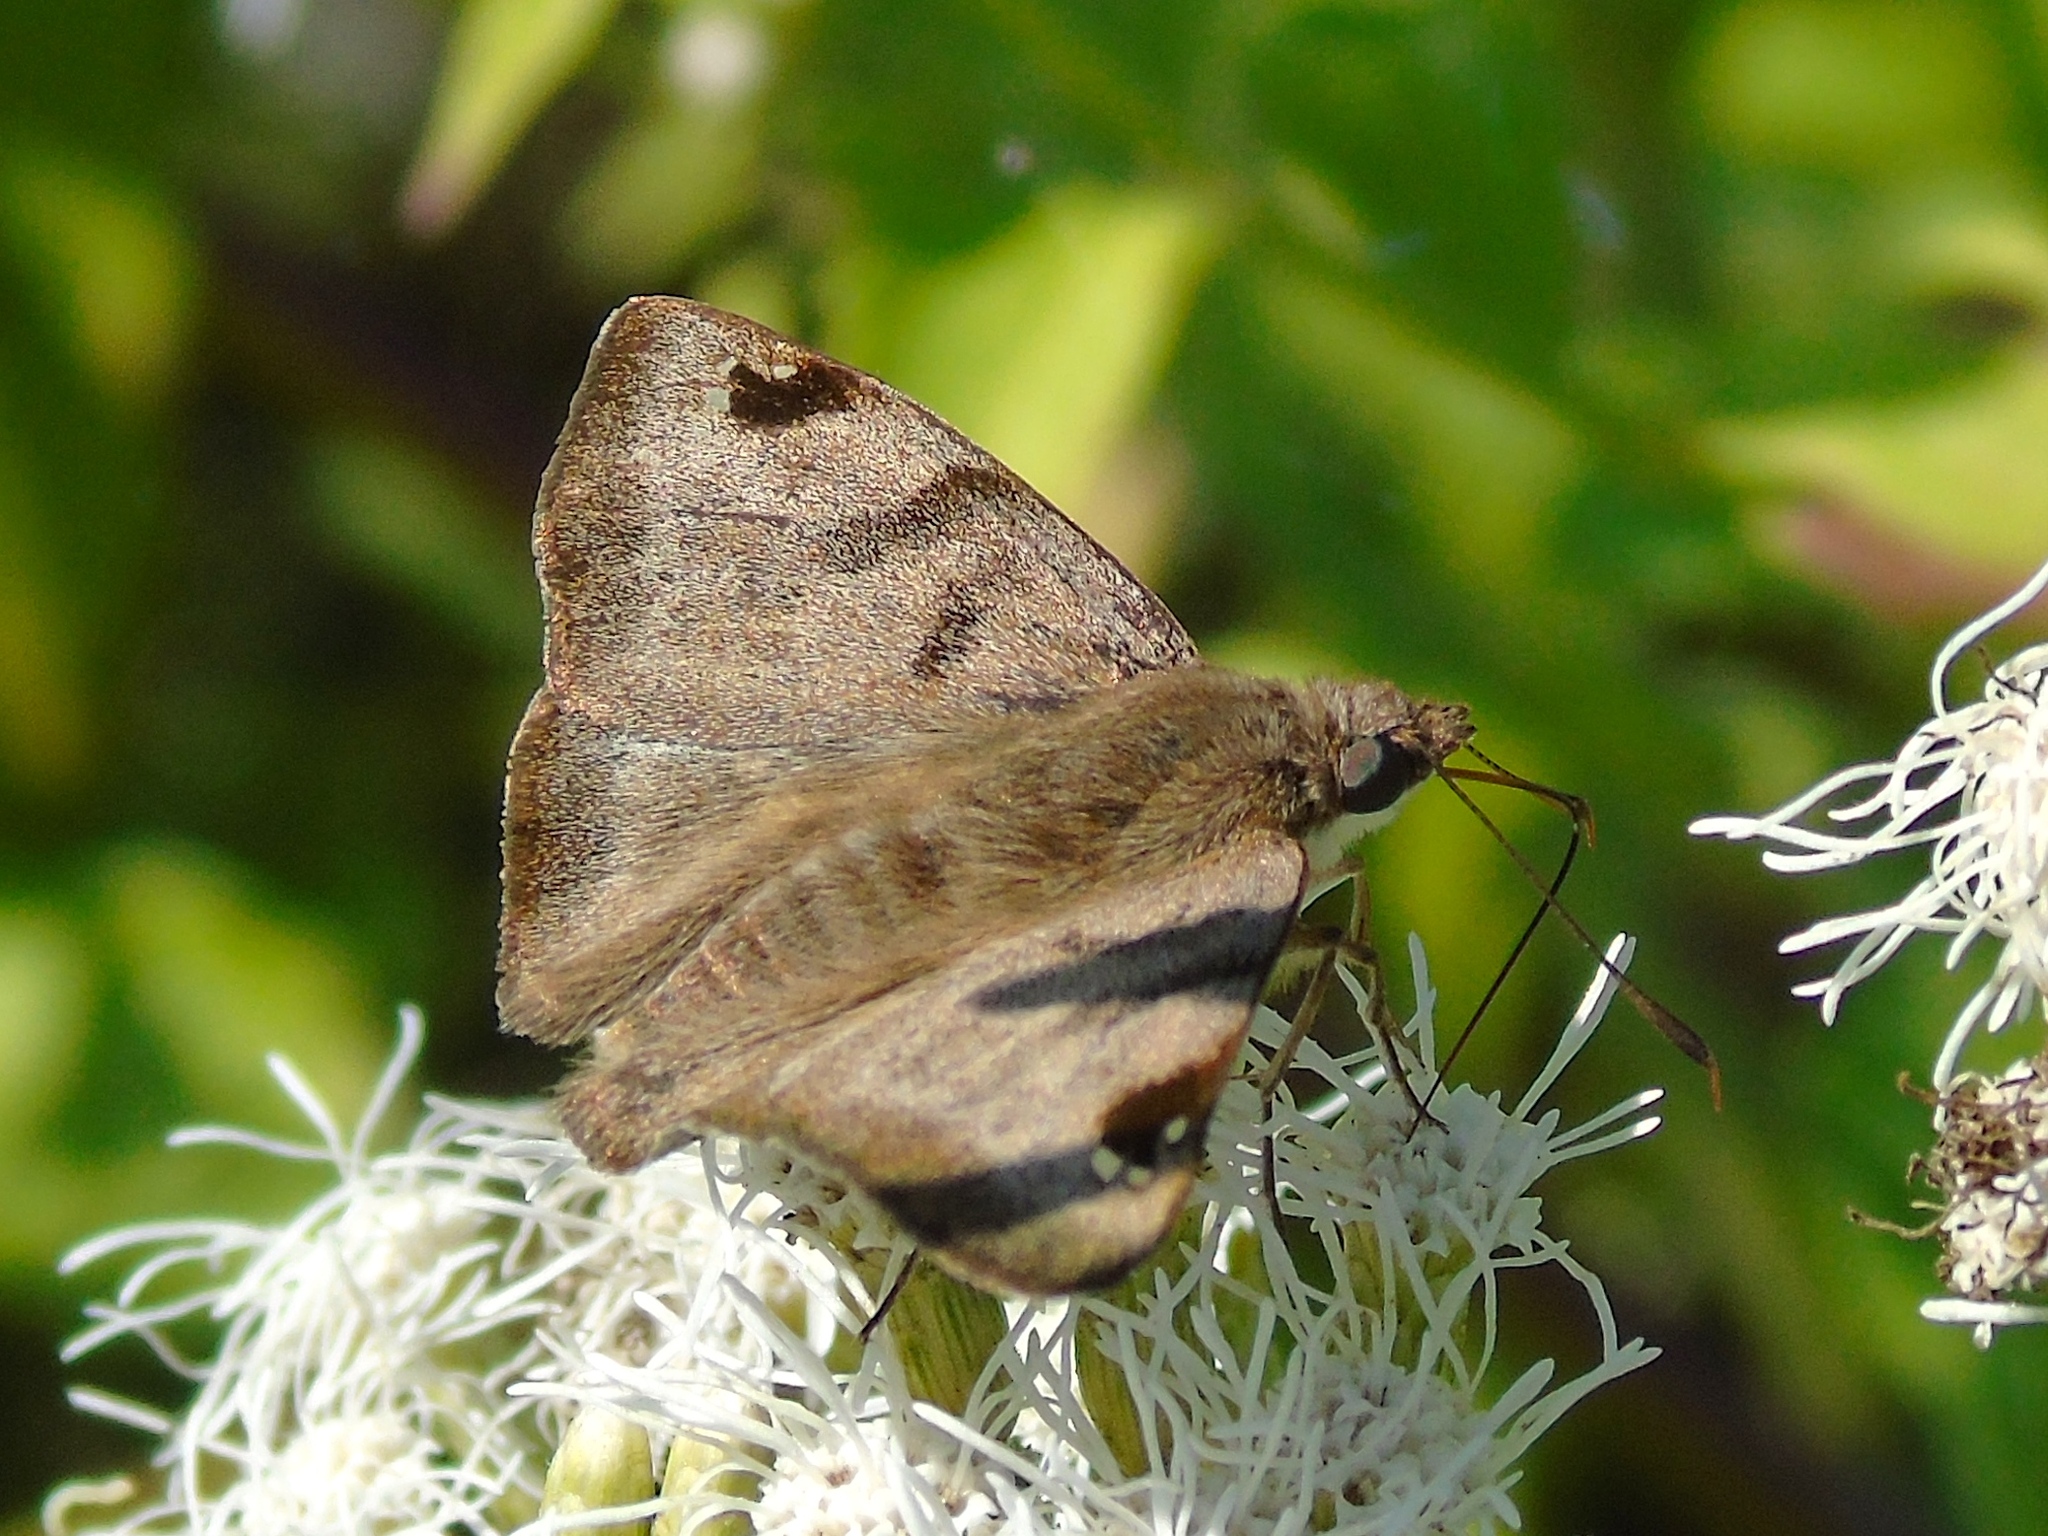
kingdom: Animalia
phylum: Arthropoda
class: Insecta
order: Lepidoptera
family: Hesperiidae
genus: Arteurotia
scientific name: Arteurotia tractipennis
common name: Starred skipper
